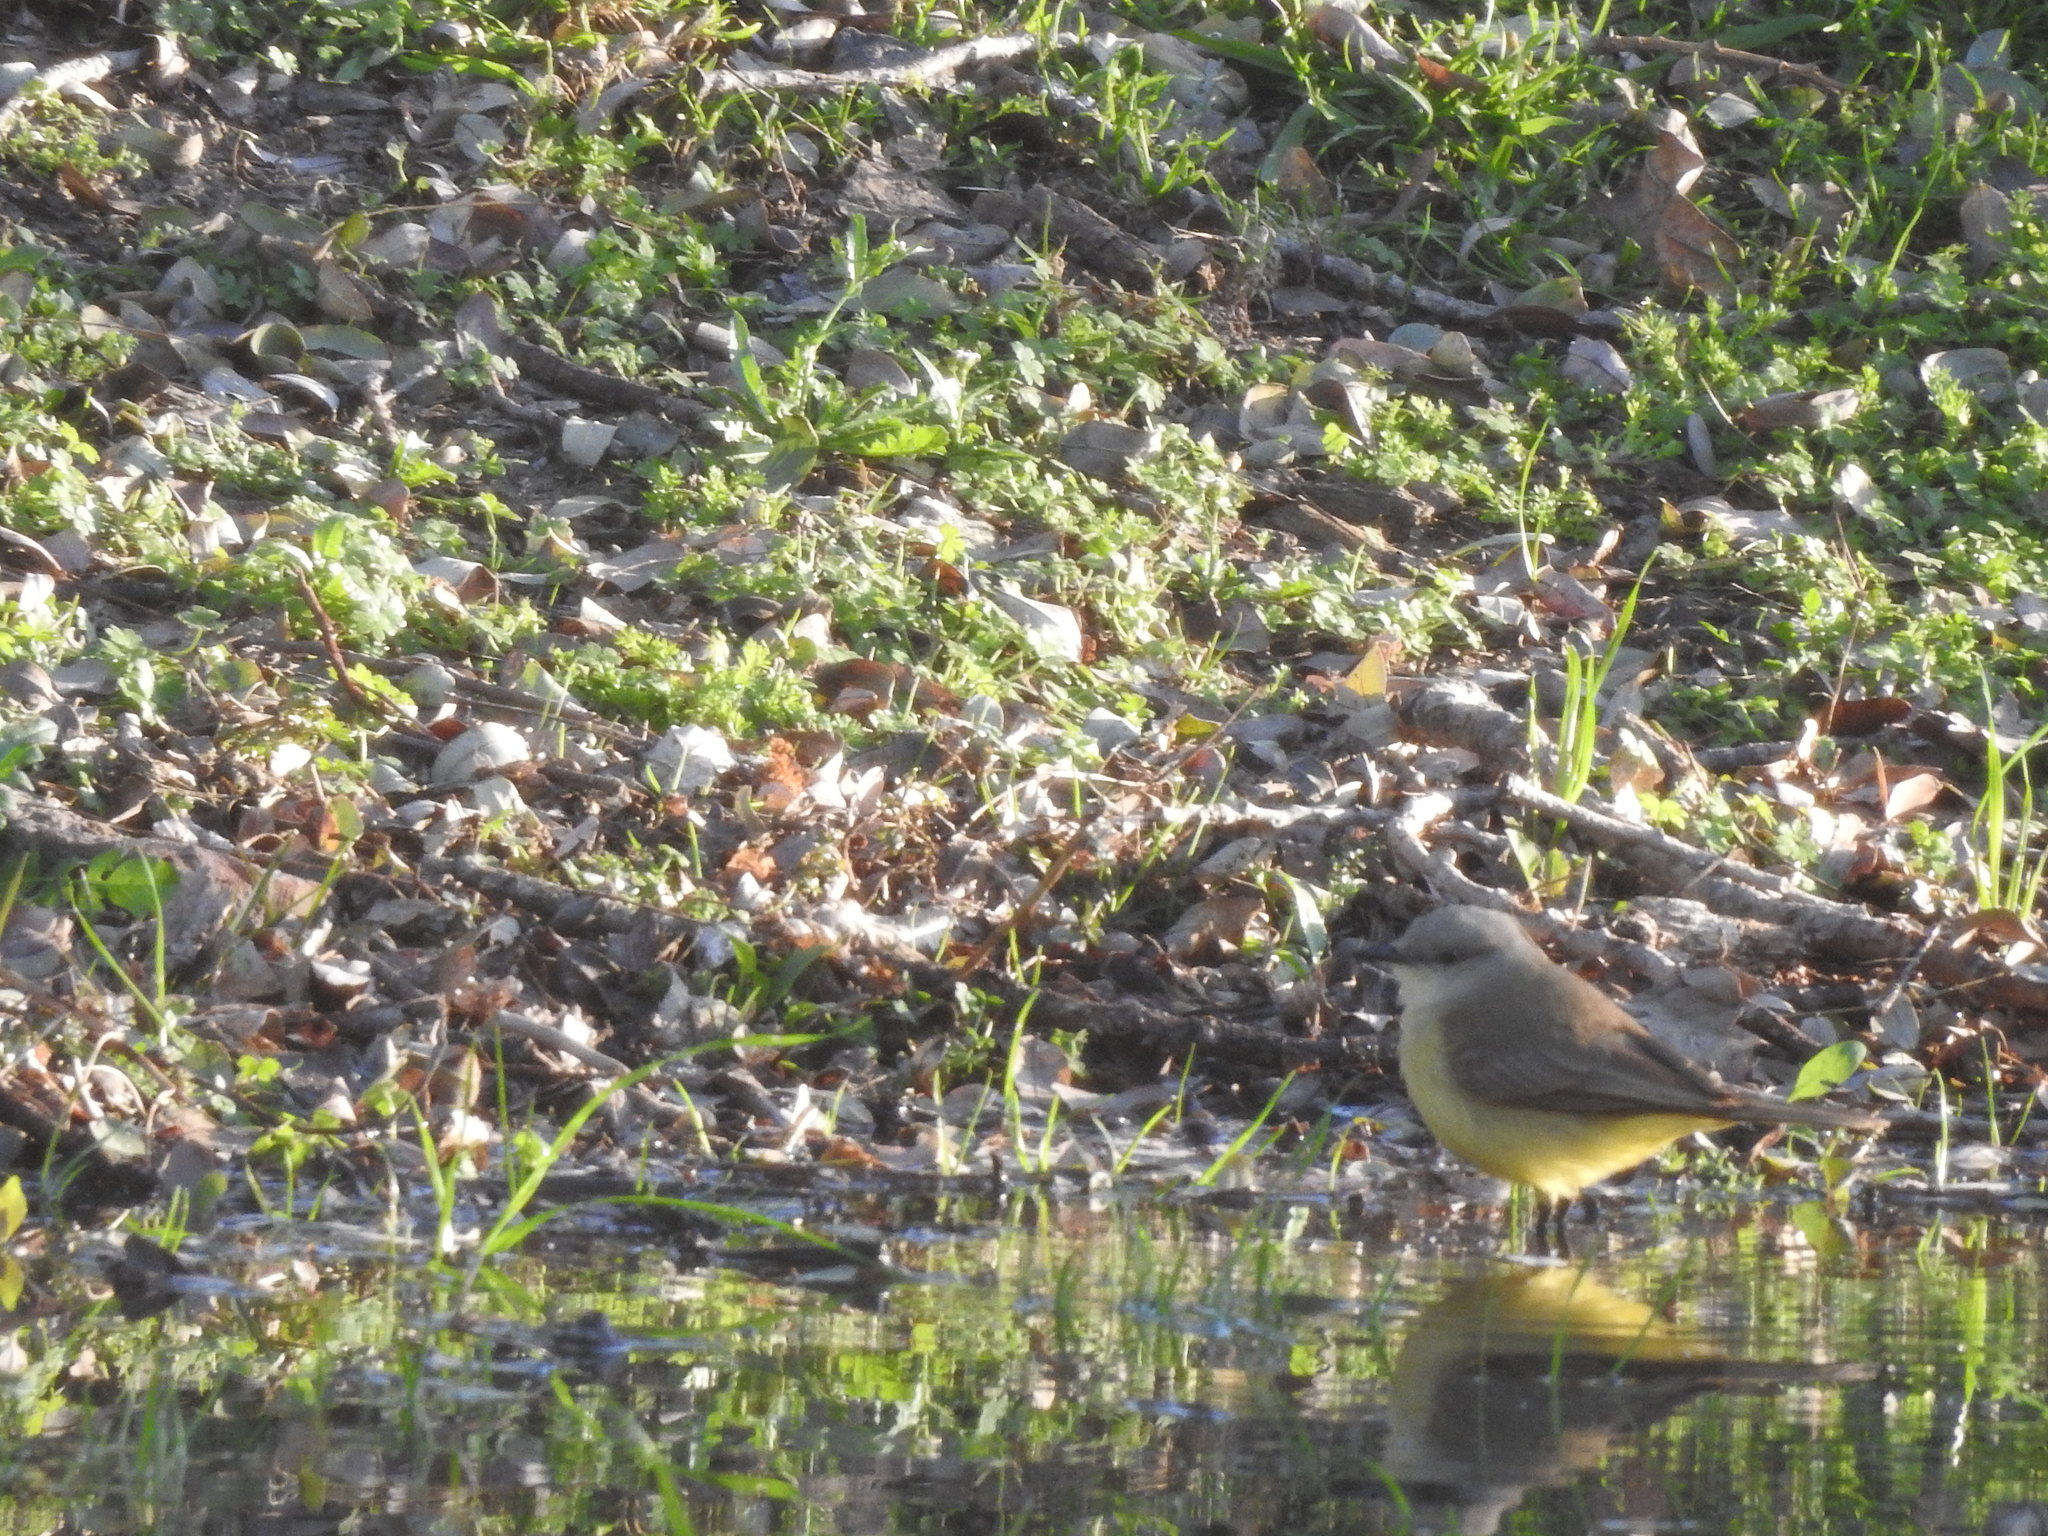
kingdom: Animalia
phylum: Chordata
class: Aves
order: Passeriformes
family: Tyrannidae
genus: Machetornis
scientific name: Machetornis rixosa
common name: Cattle tyrant
